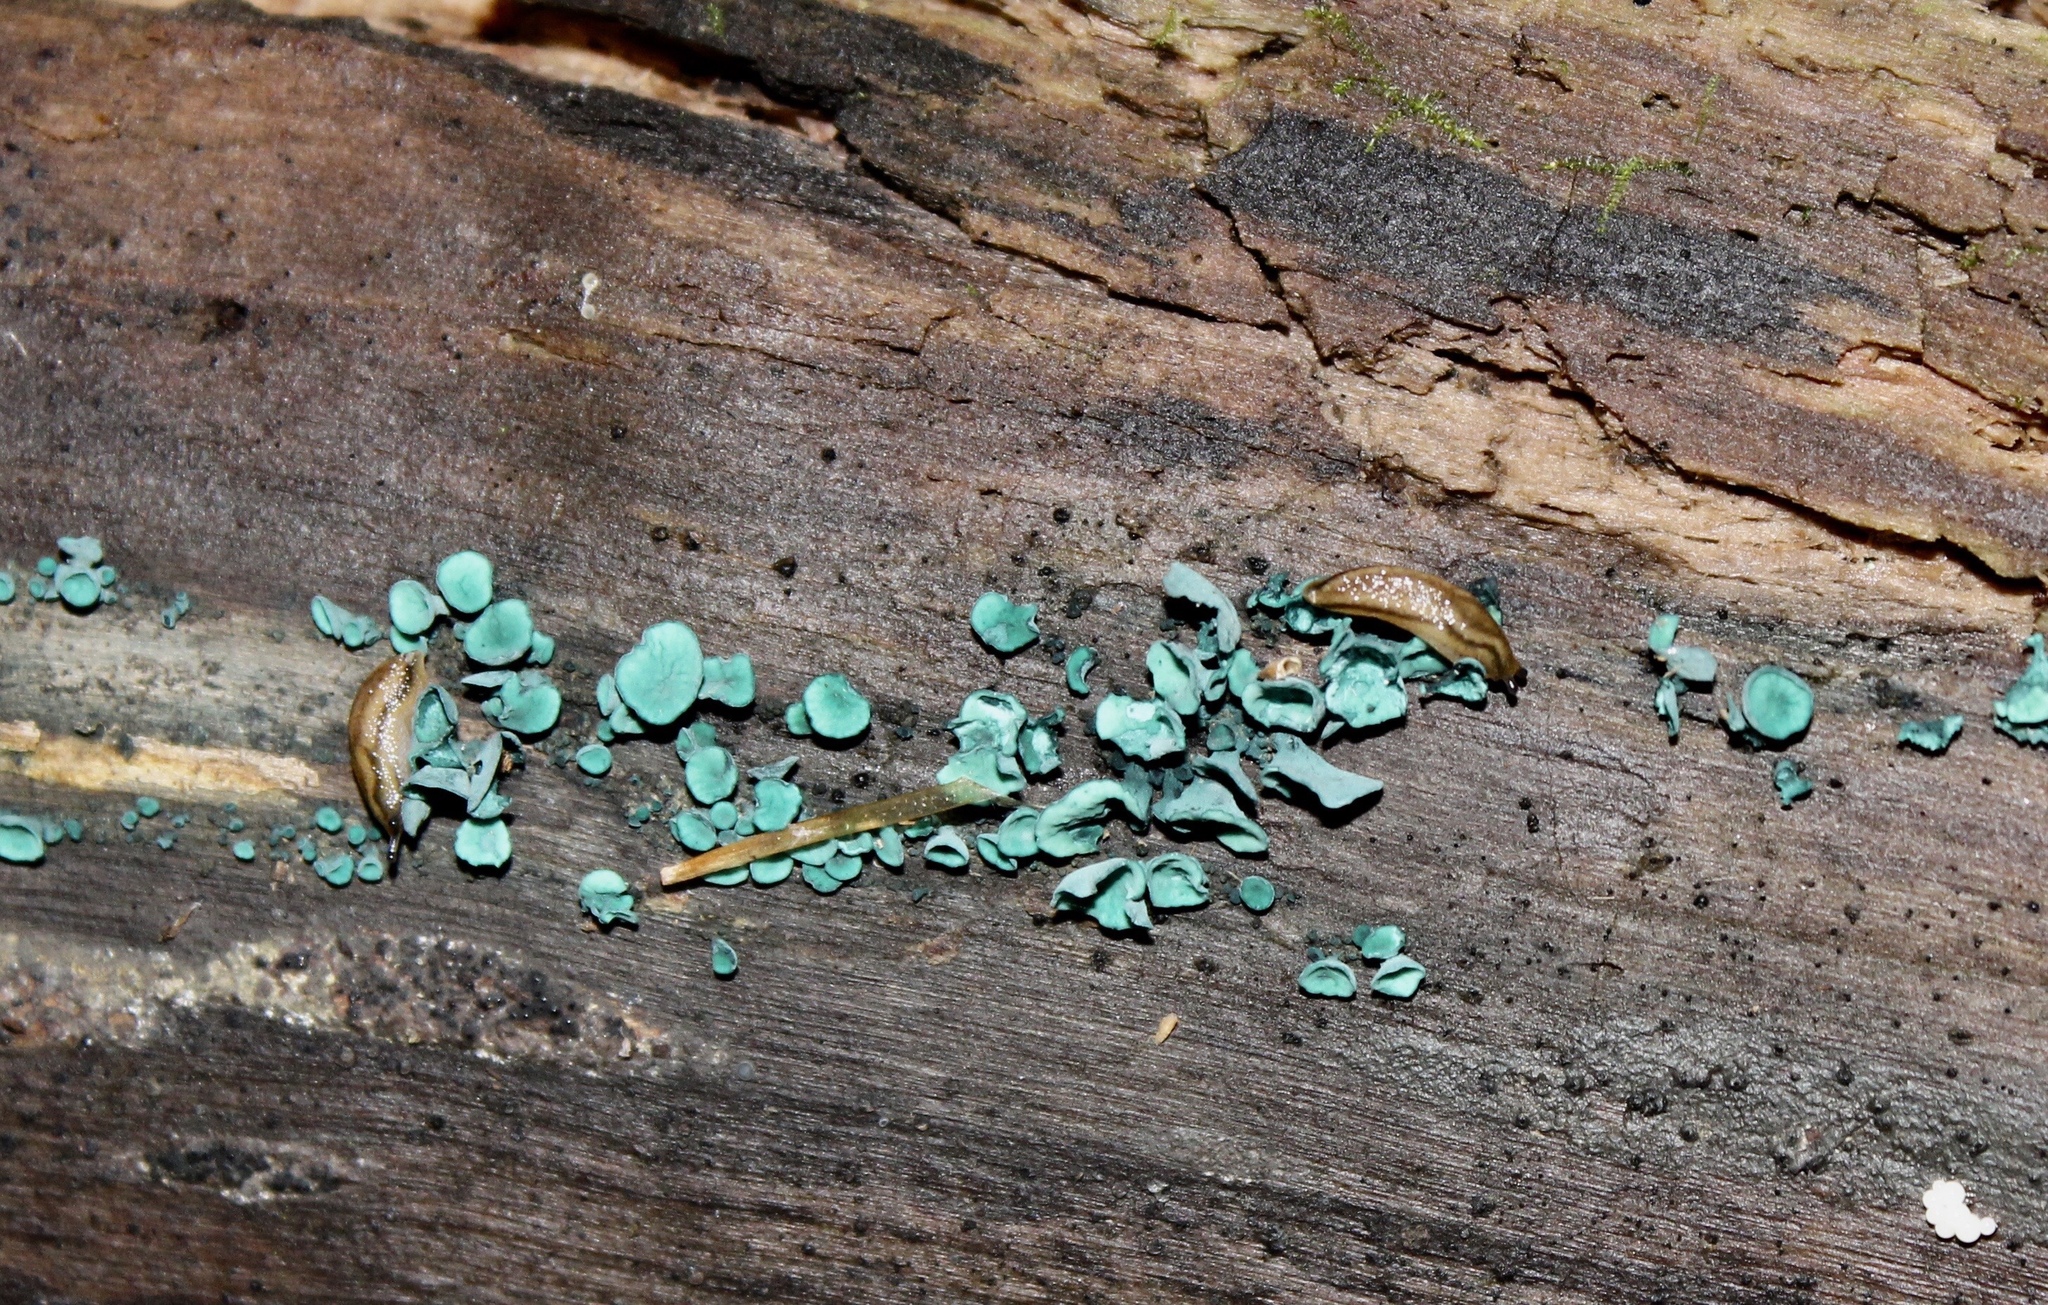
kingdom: Fungi
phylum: Ascomycota
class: Leotiomycetes
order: Helotiales
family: Chlorociboriaceae
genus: Chlorociboria
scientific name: Chlorociboria aeruginascens
